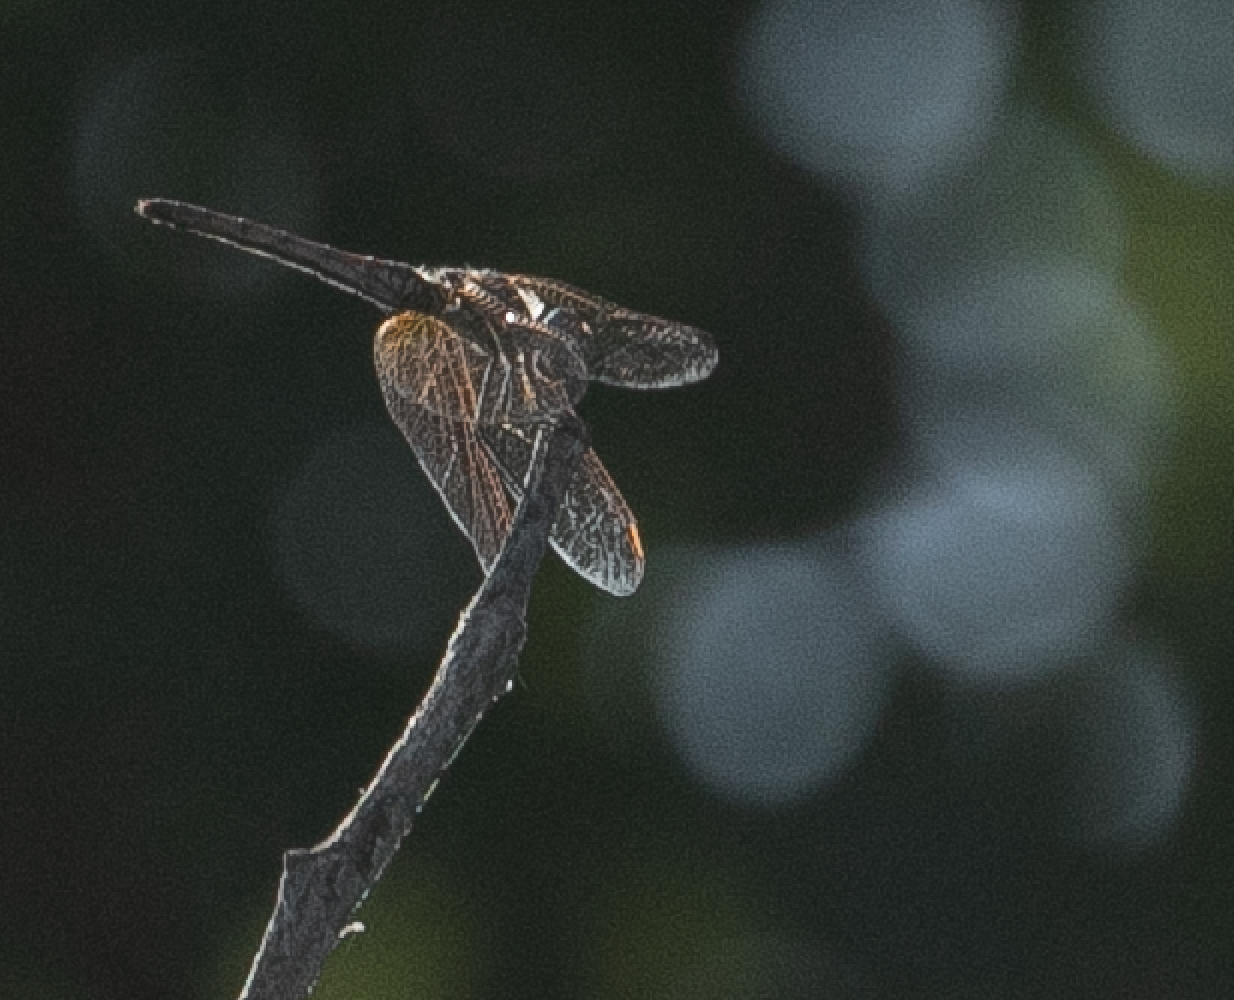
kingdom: Animalia
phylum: Arthropoda
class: Insecta
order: Odonata
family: Libellulidae
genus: Trithemis
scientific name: Trithemis annulata
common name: Violet dropwing
